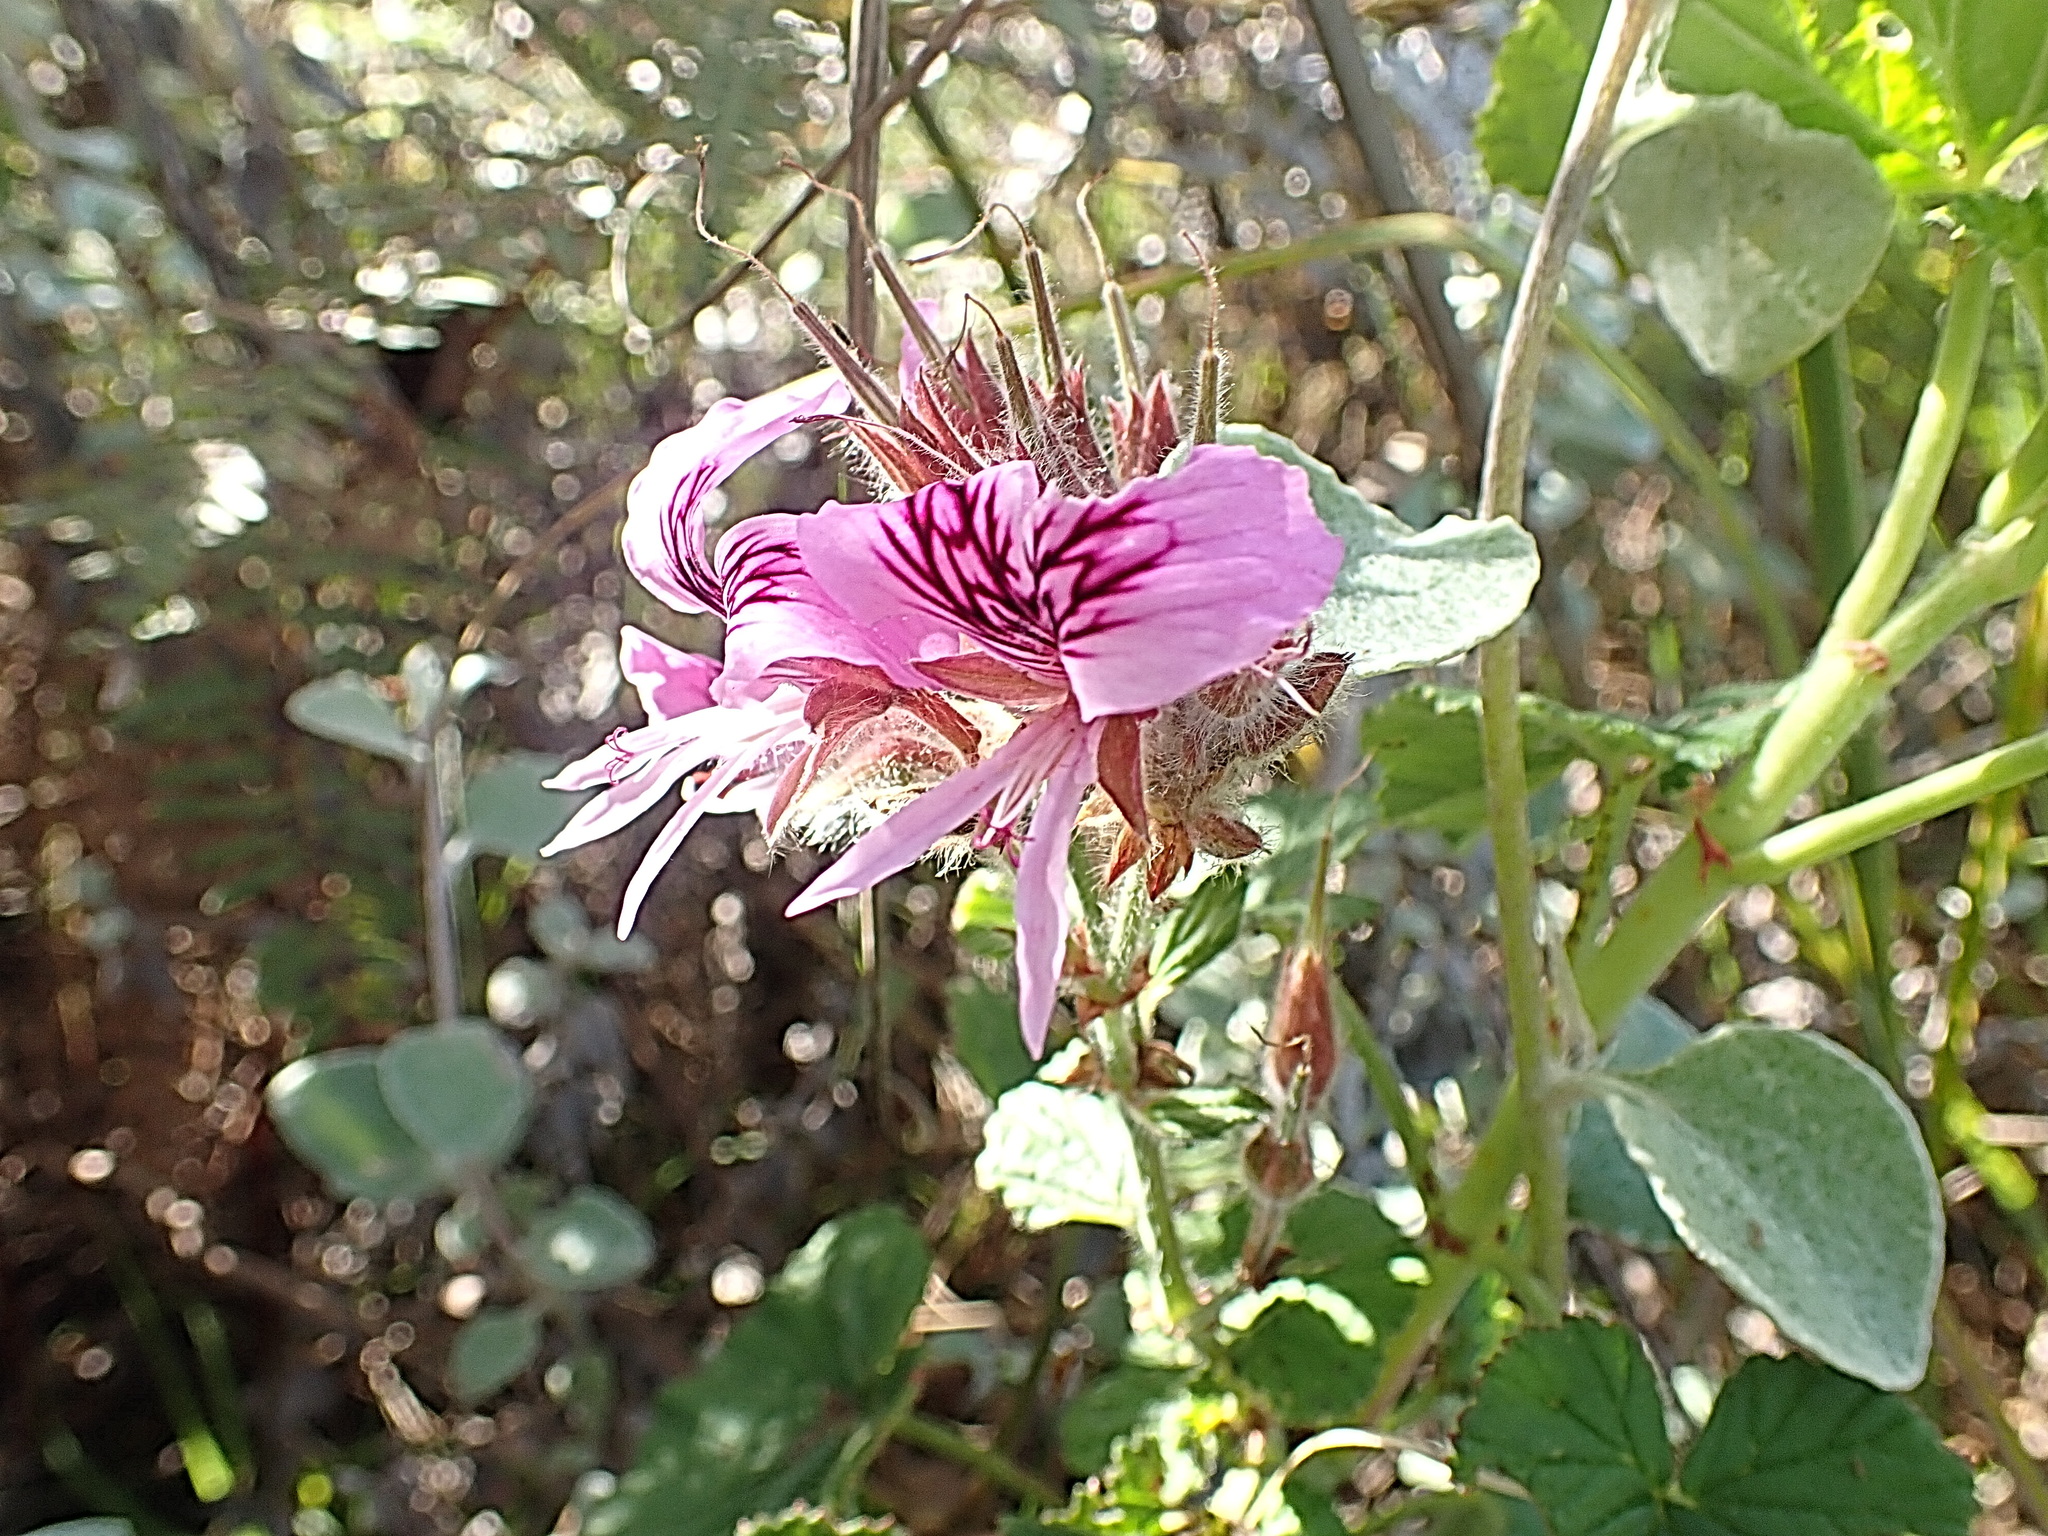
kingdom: Plantae
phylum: Tracheophyta
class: Magnoliopsida
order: Geraniales
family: Geraniaceae
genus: Pelargonium
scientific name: Pelargonium cordifolium
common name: Heart-leaf pelargonium
